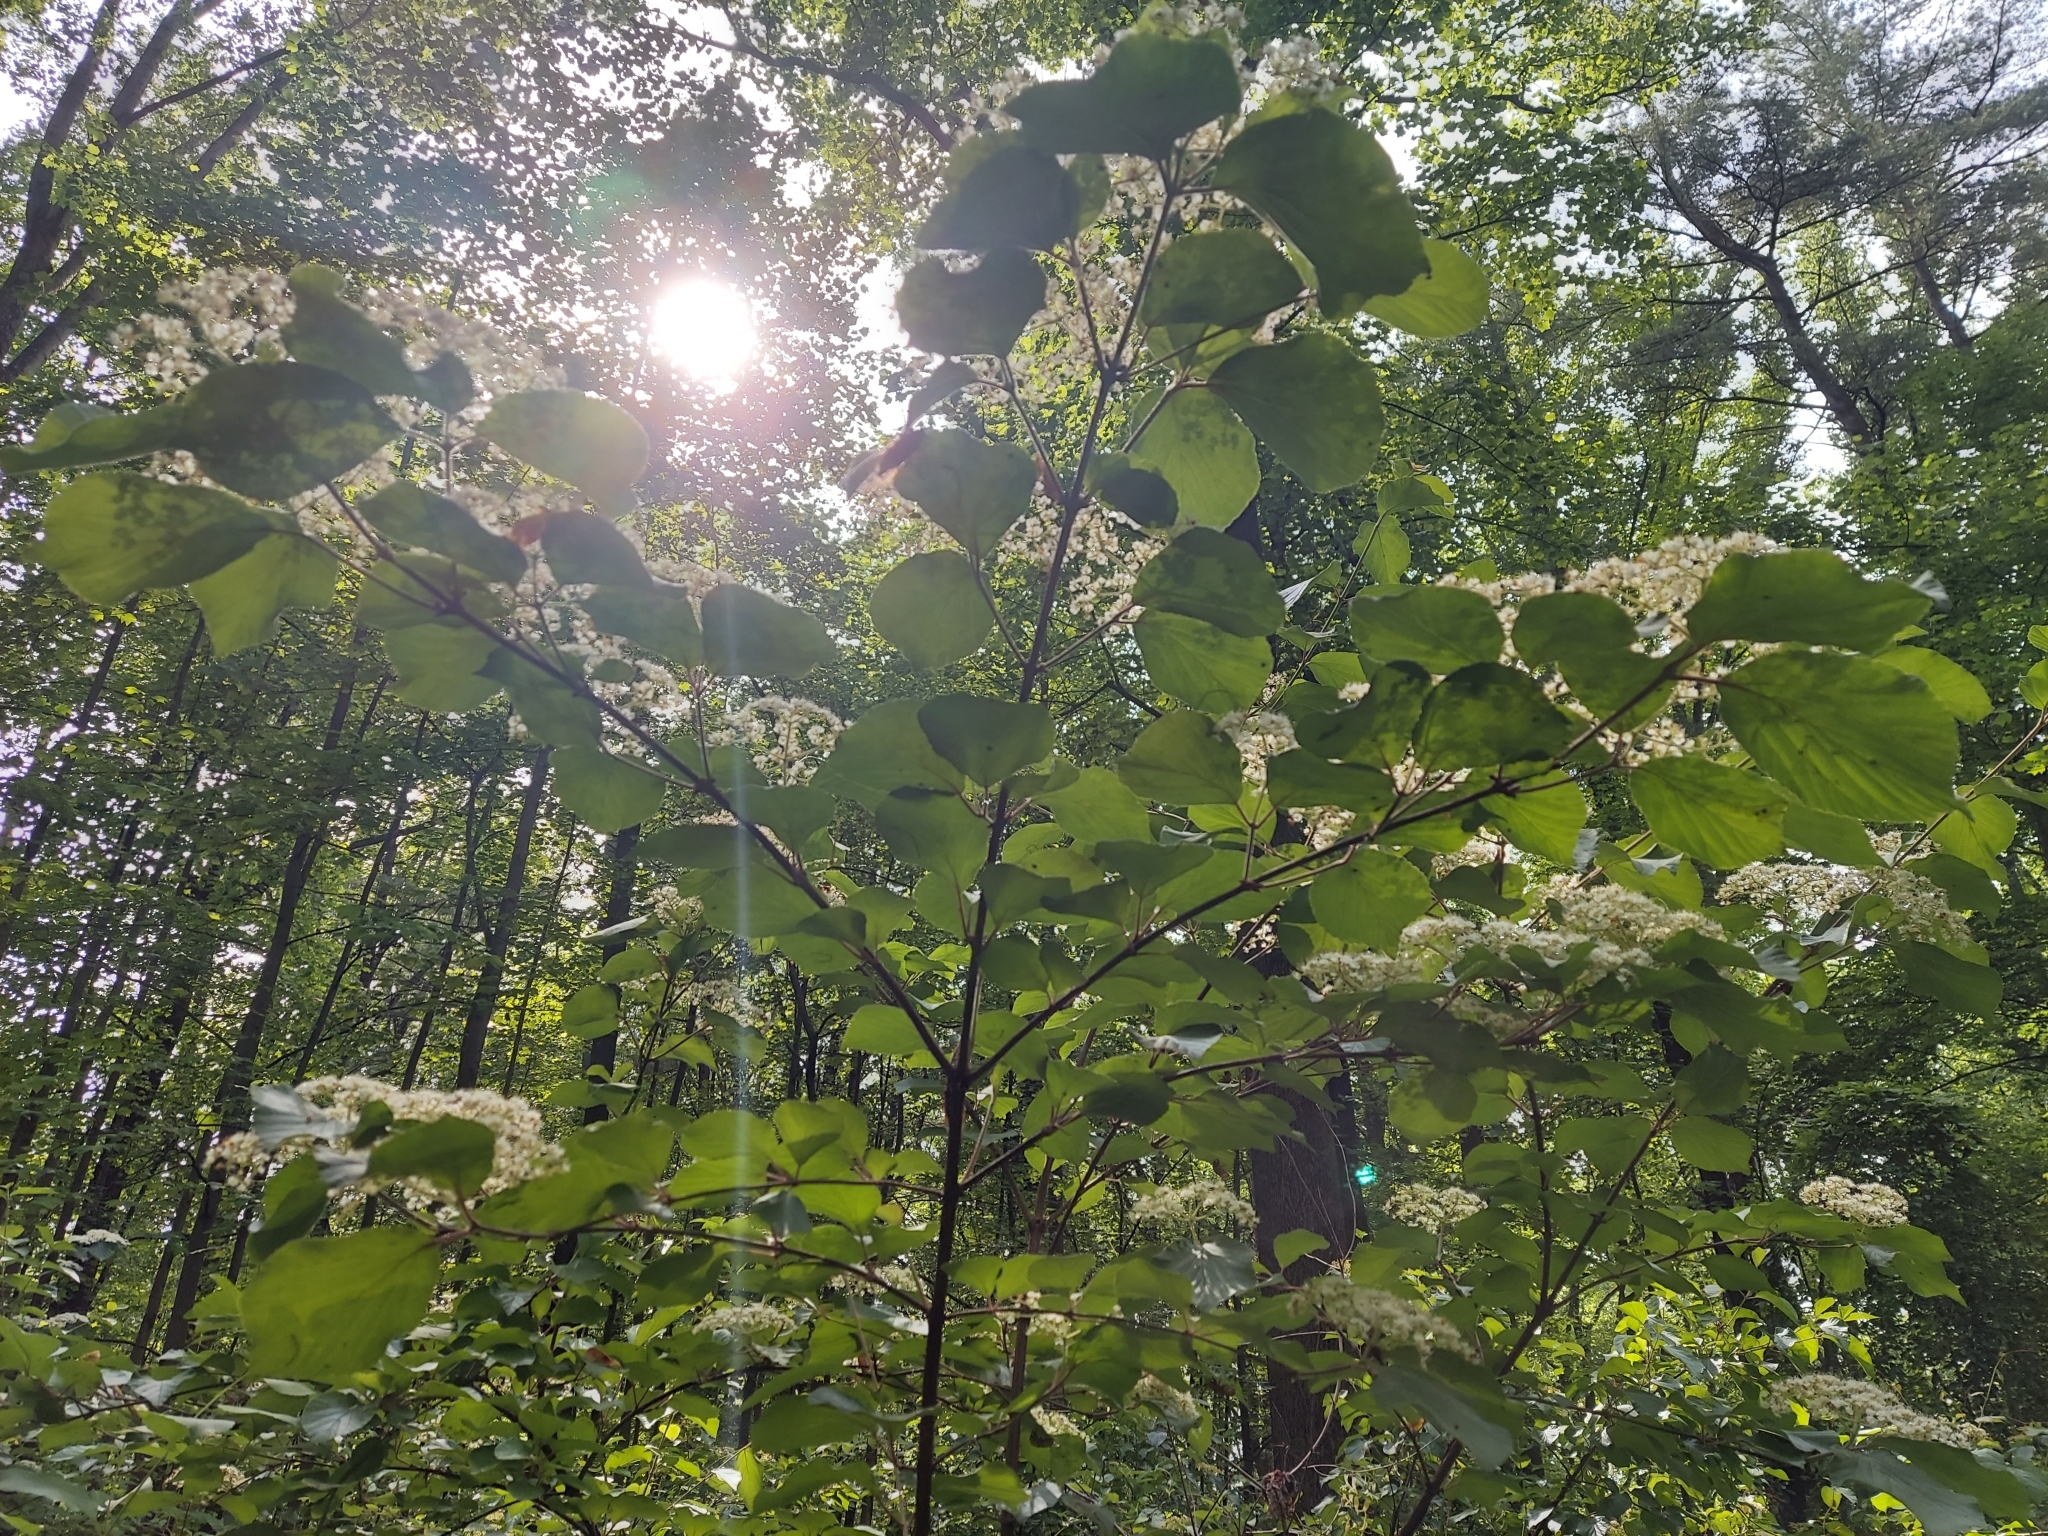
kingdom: Plantae
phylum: Tracheophyta
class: Magnoliopsida
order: Dipsacales
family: Viburnaceae
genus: Viburnum
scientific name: Viburnum dilatatum
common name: Linden arrowwood
